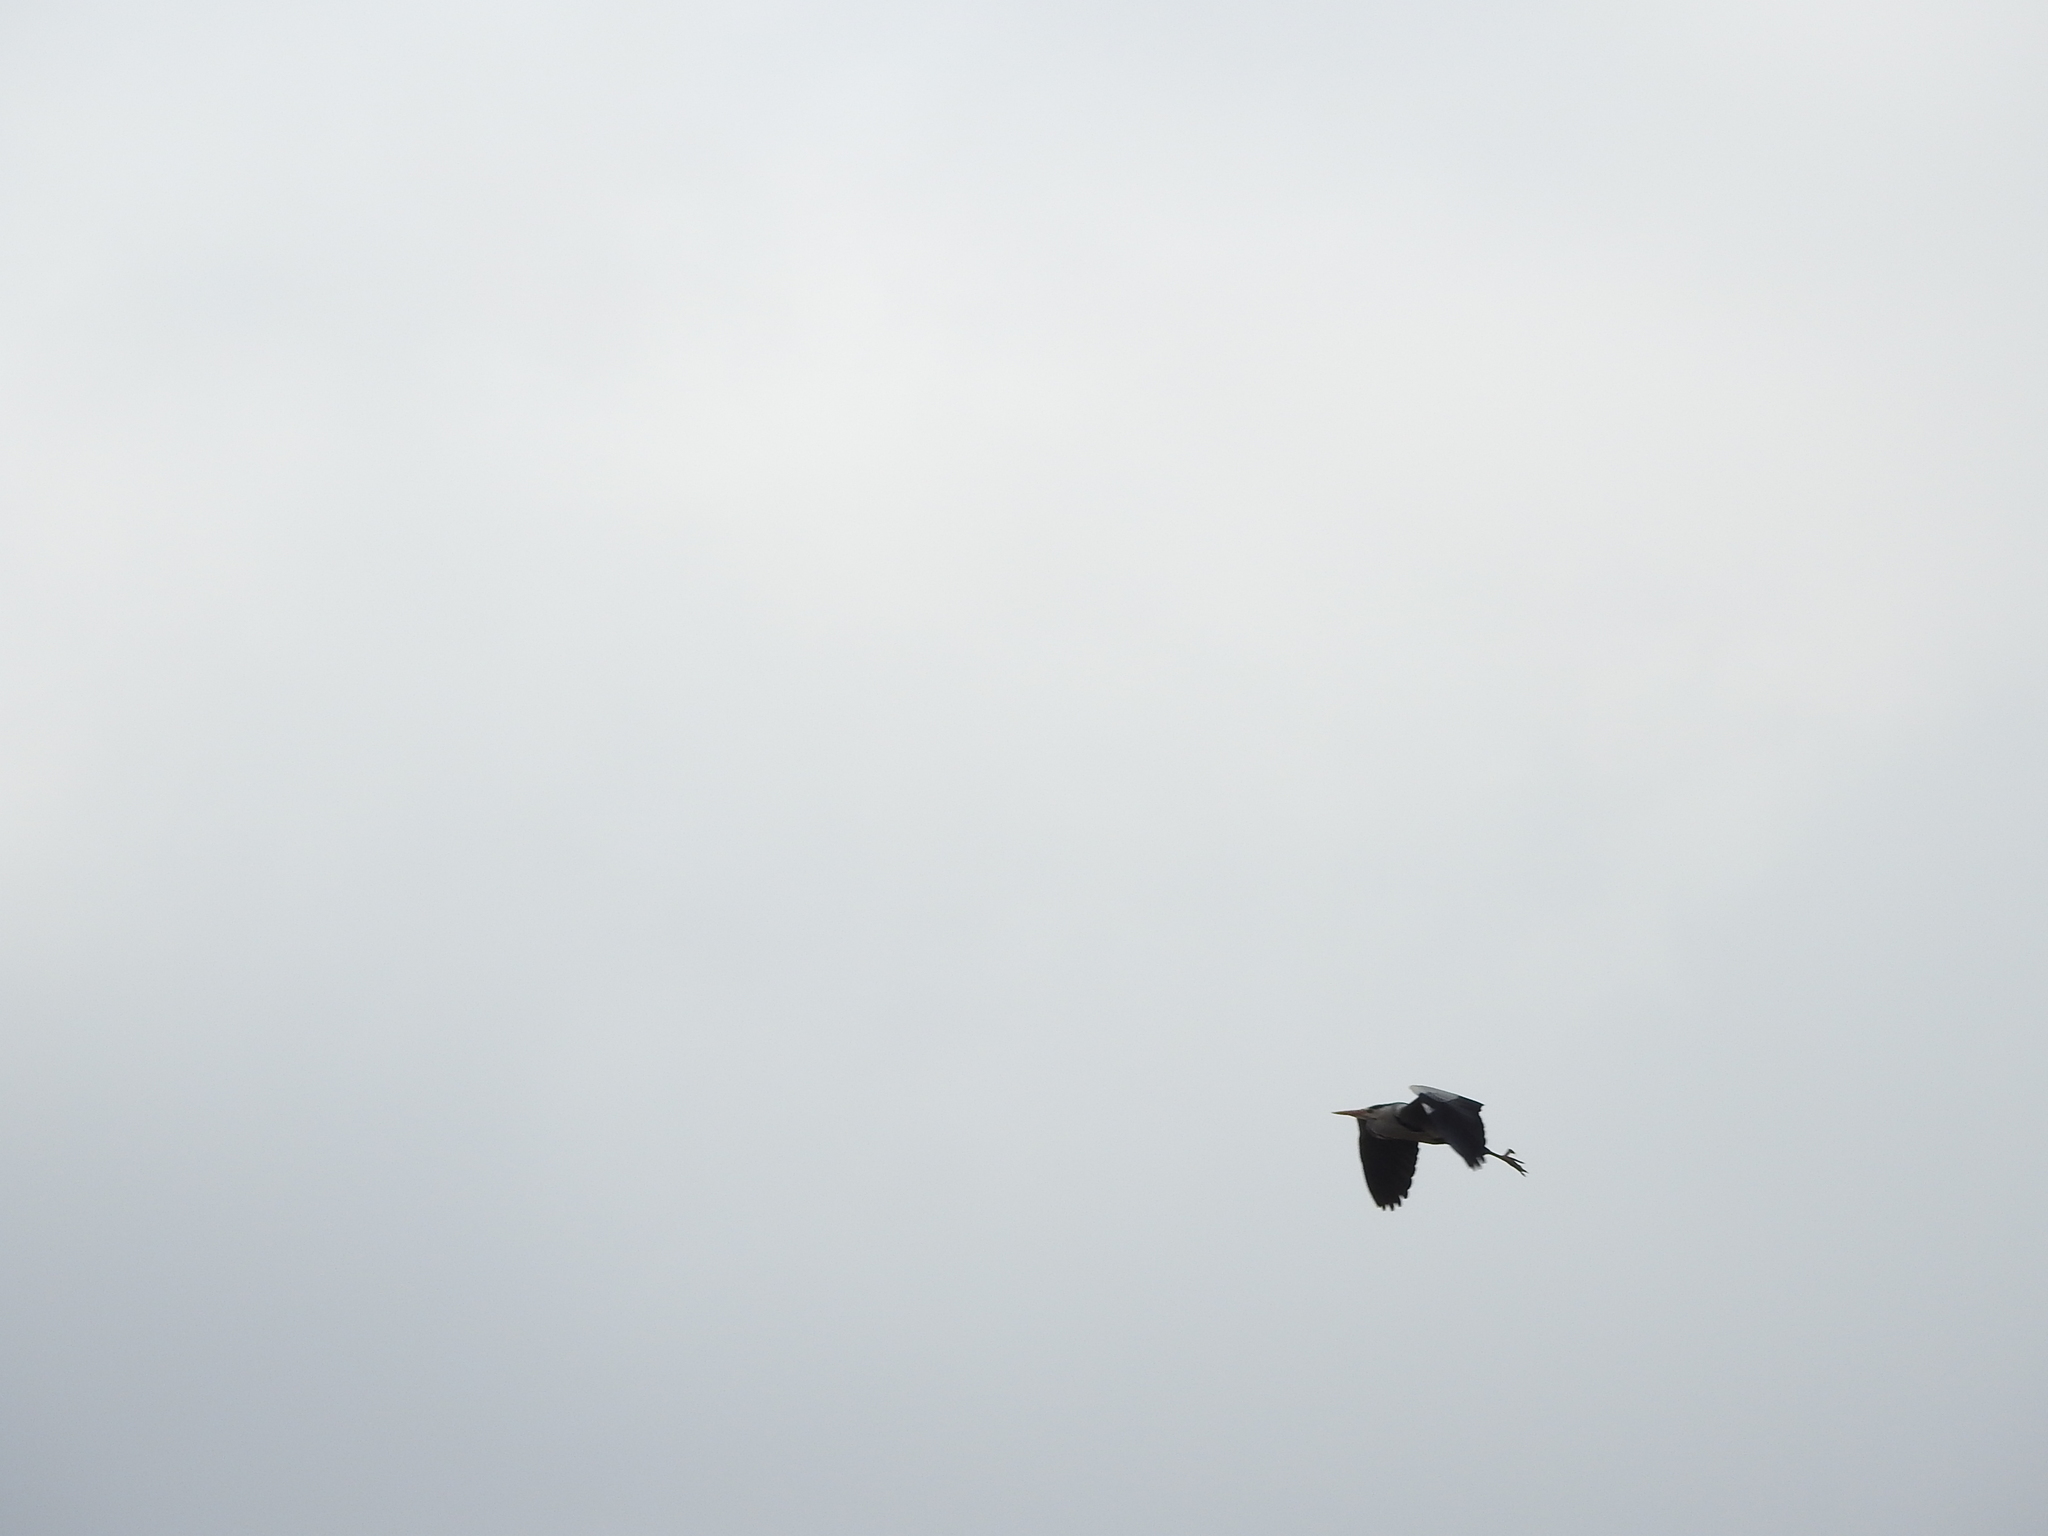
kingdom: Animalia
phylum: Chordata
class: Aves
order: Pelecaniformes
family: Ardeidae
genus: Ardea
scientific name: Ardea cinerea
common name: Grey heron
